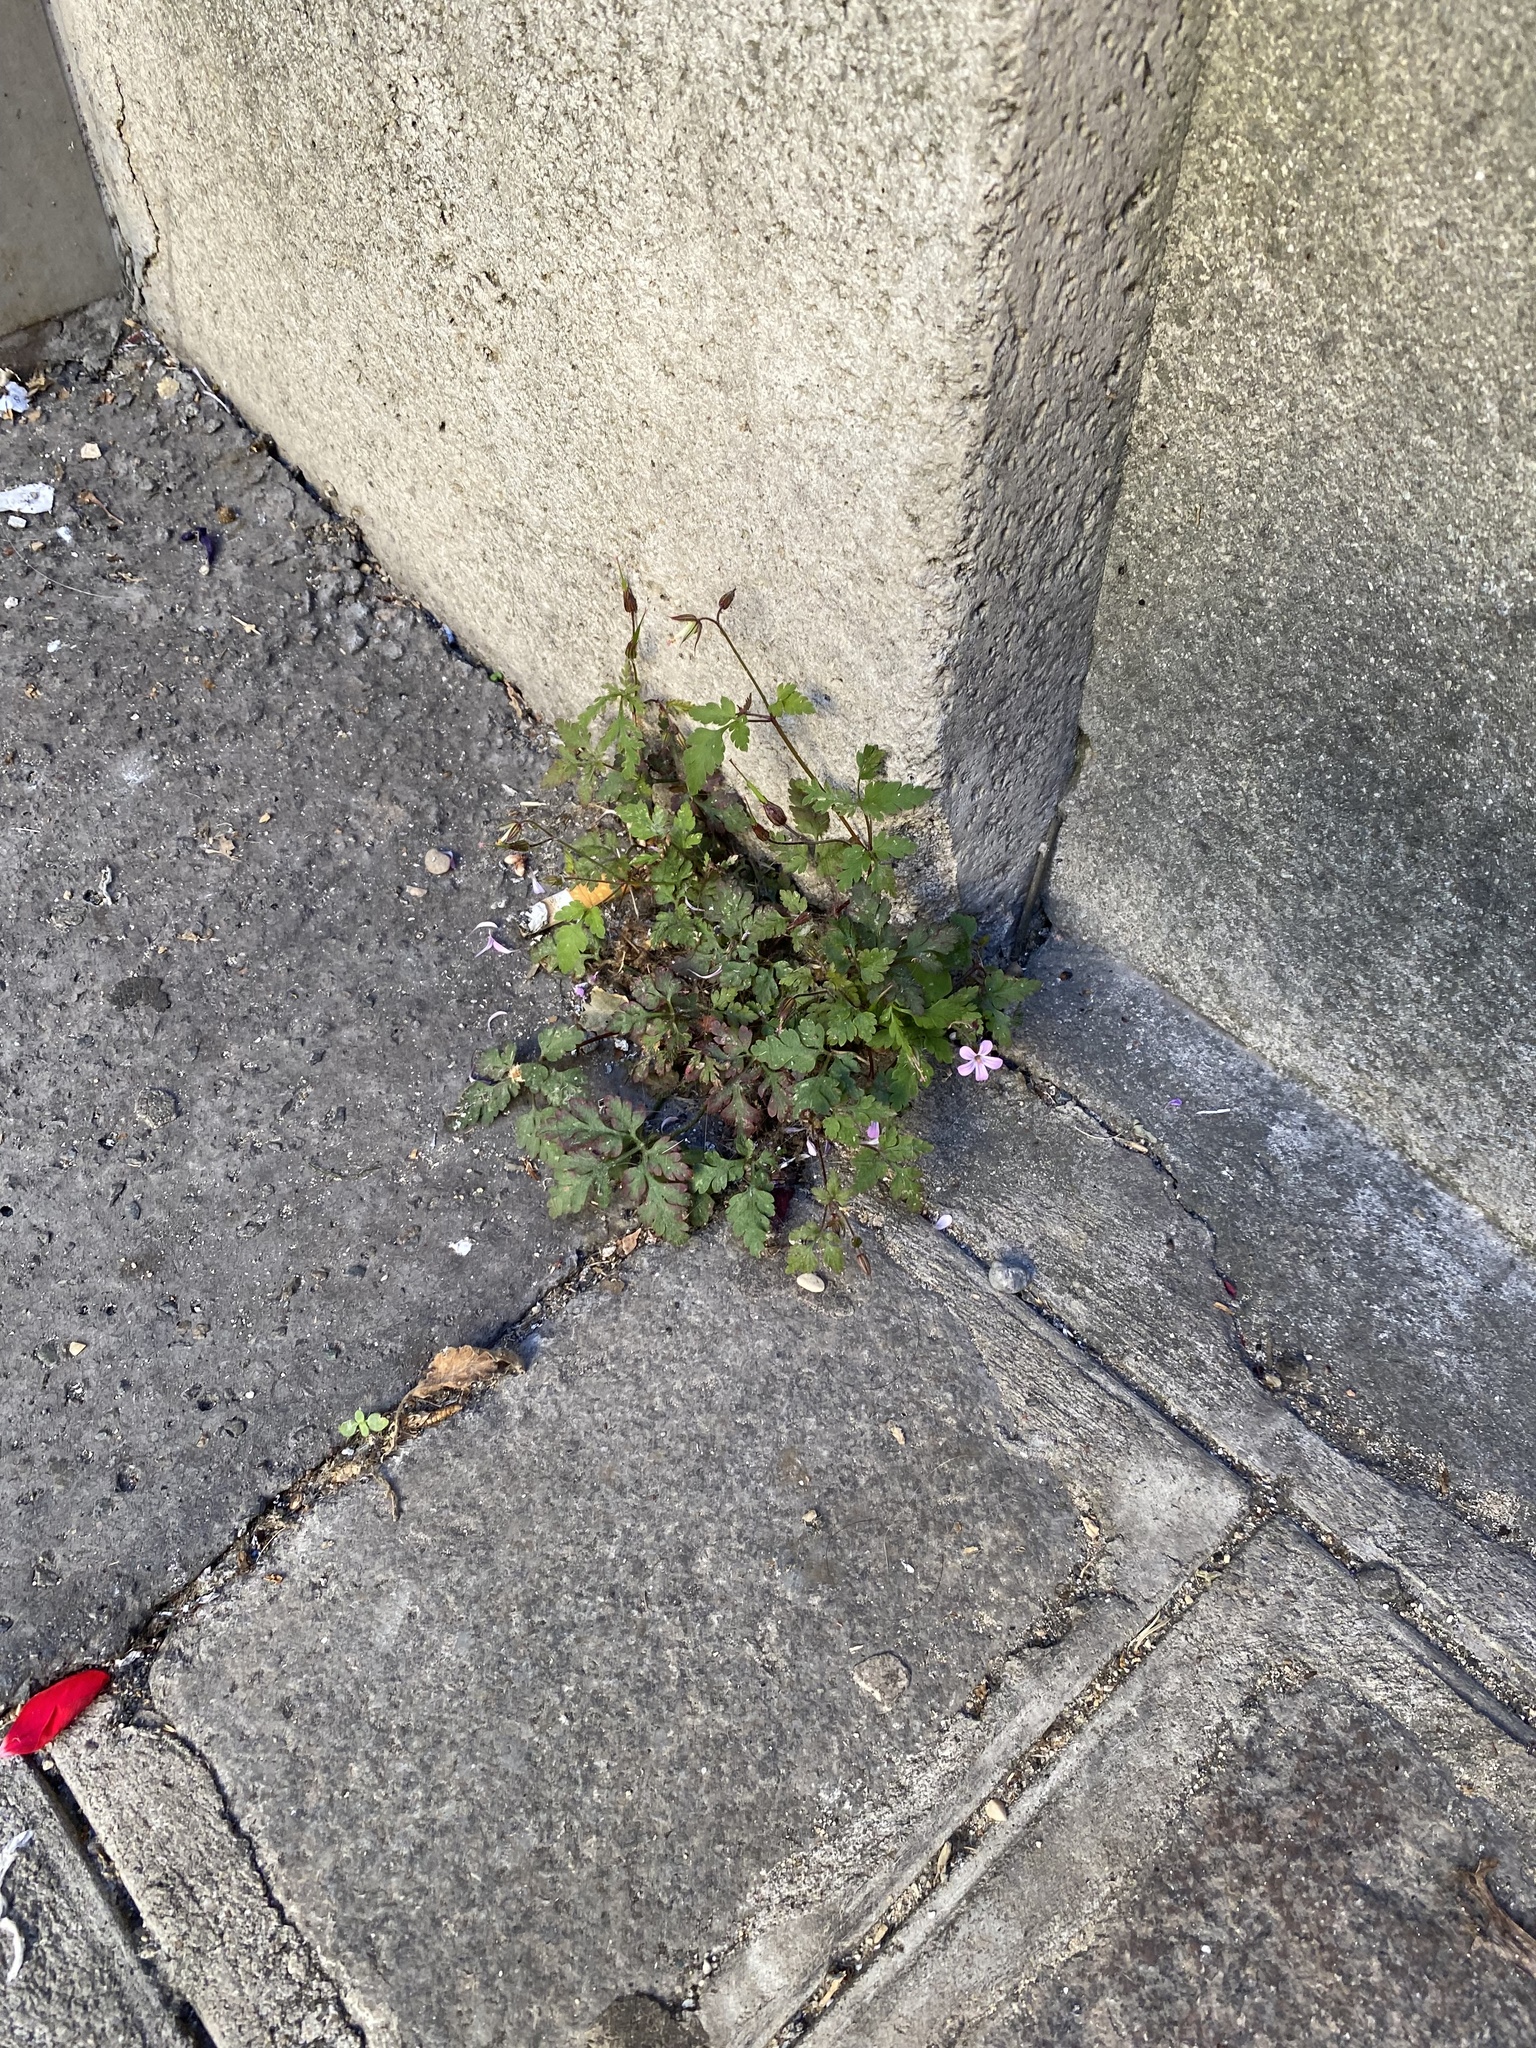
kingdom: Plantae
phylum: Tracheophyta
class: Magnoliopsida
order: Geraniales
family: Geraniaceae
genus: Geranium
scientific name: Geranium robertianum
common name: Herb-robert
